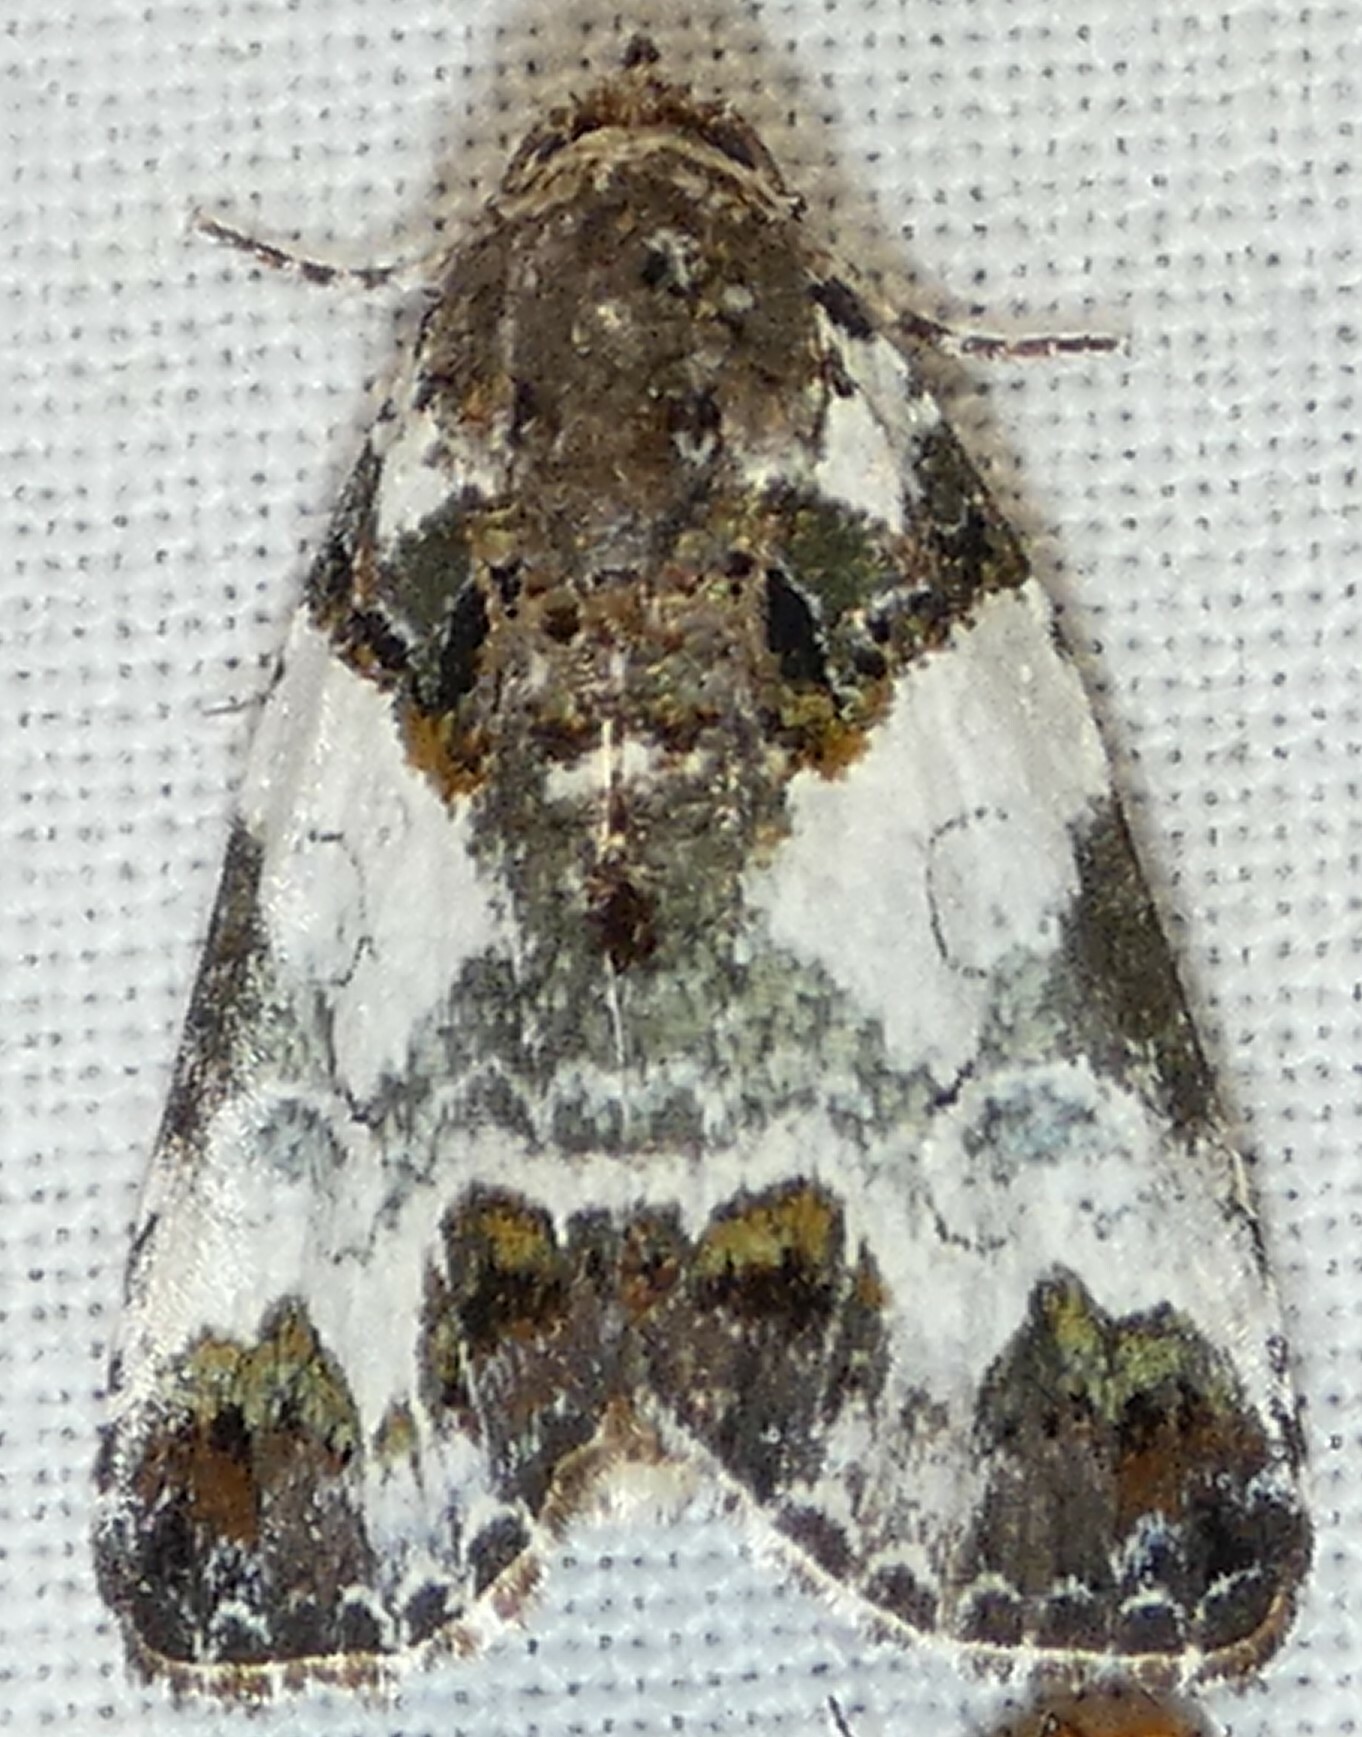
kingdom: Animalia
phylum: Arthropoda
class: Insecta
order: Lepidoptera
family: Noctuidae
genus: Cerma
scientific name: Cerma cerintha
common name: Tufted bird-dropping moth
